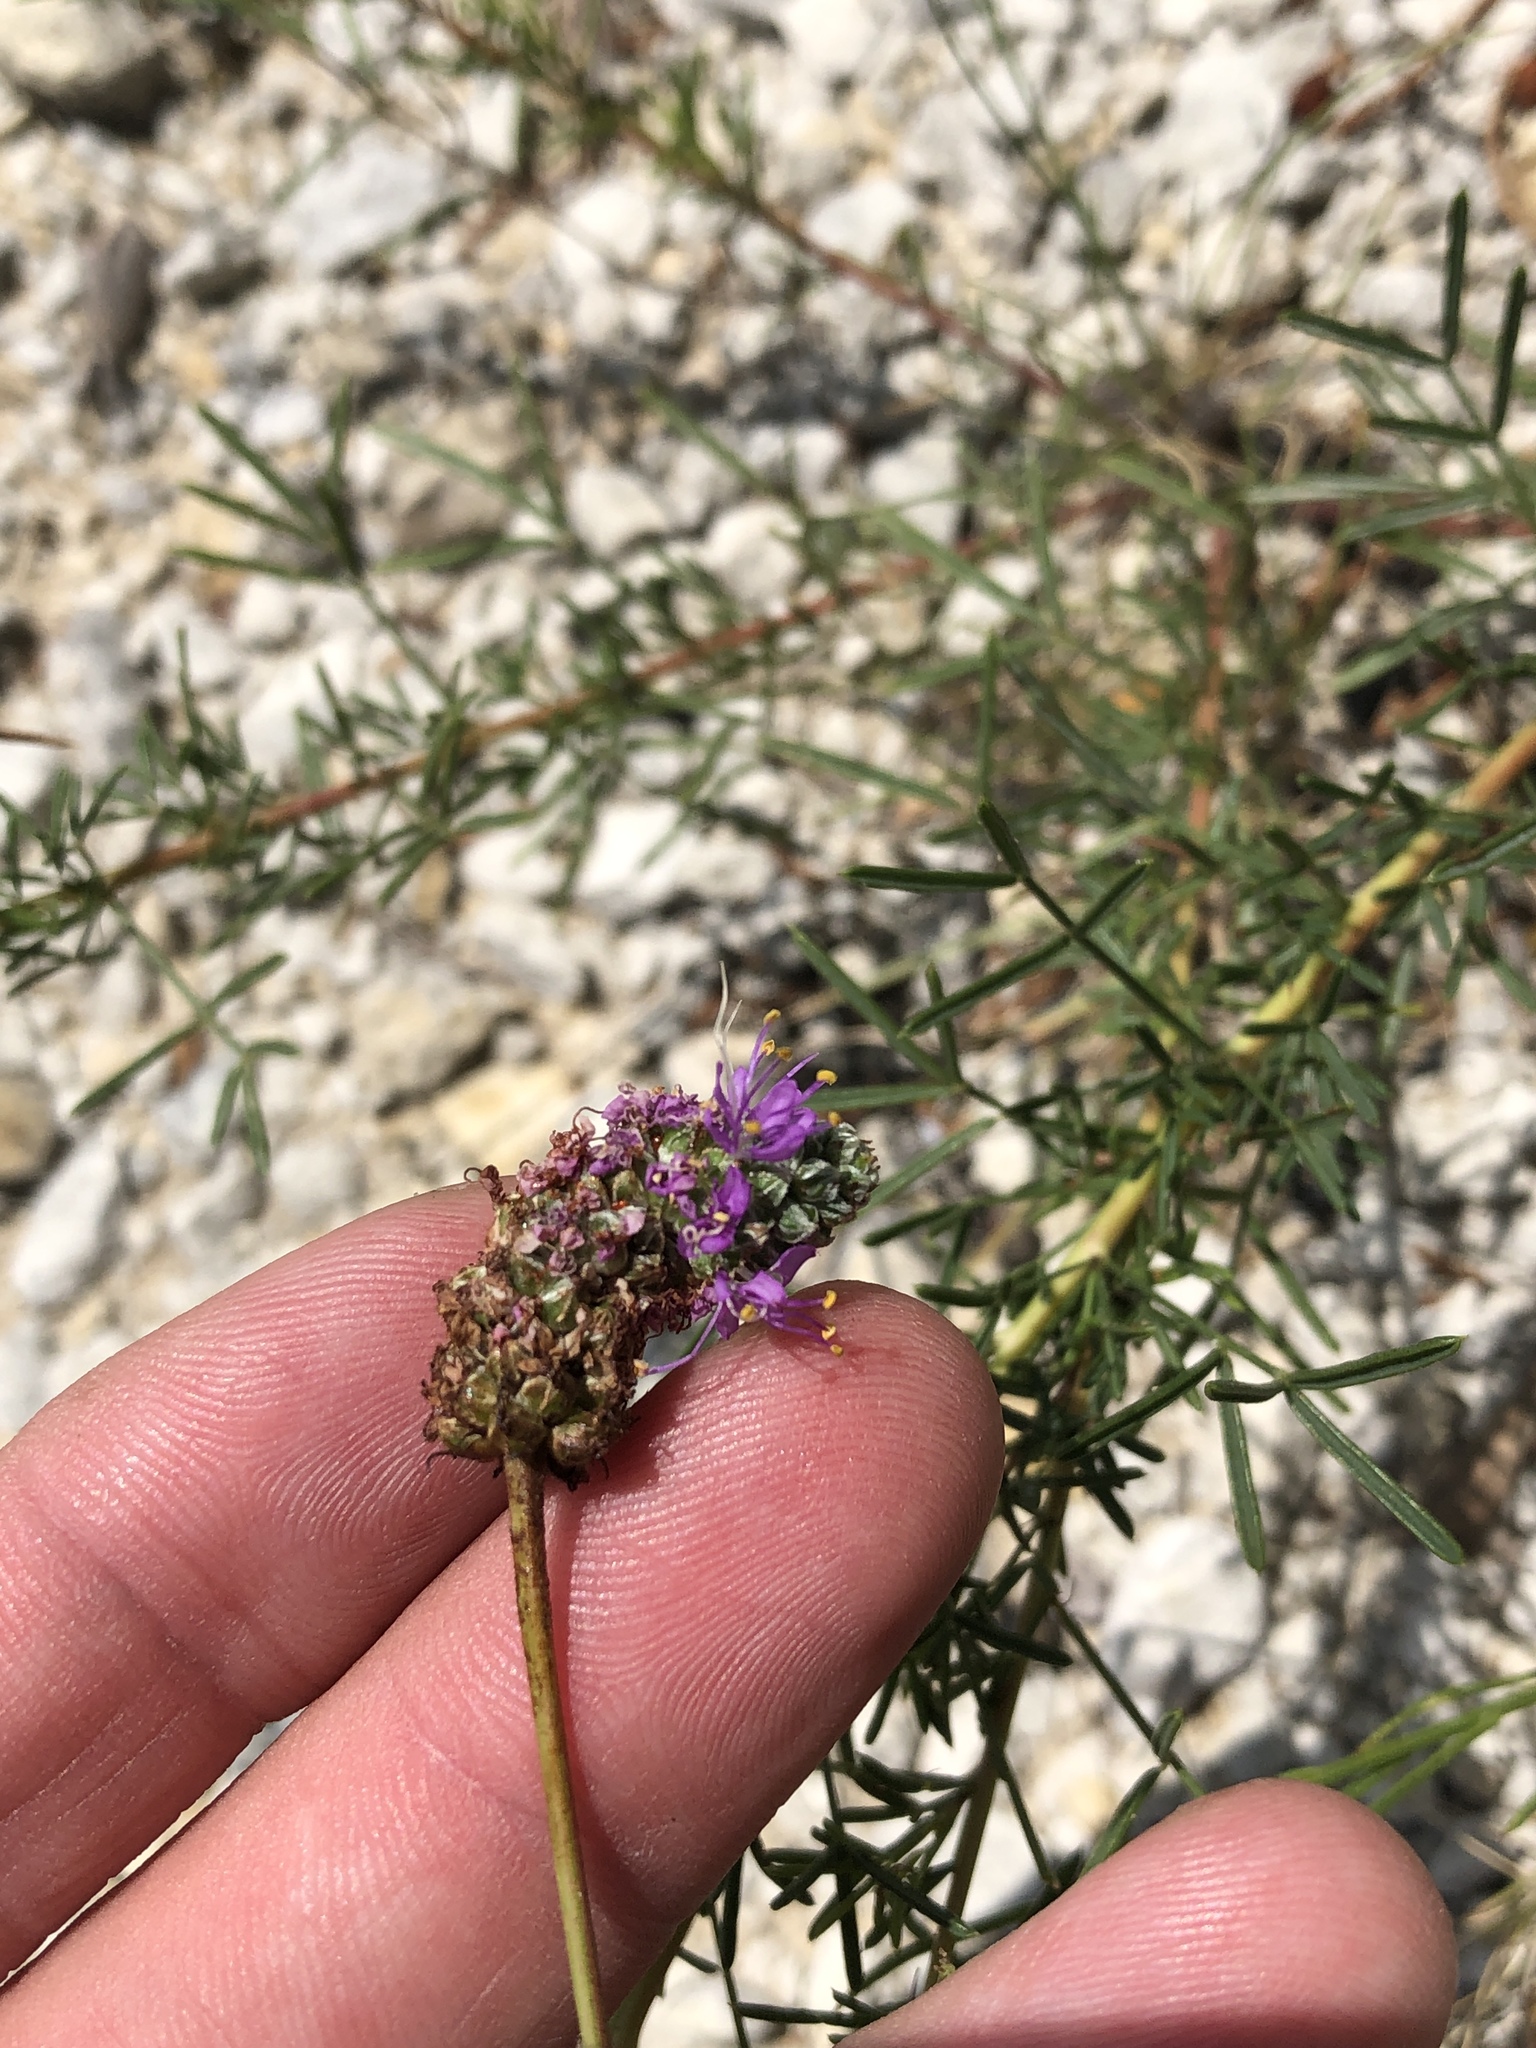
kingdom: Plantae
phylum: Tracheophyta
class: Magnoliopsida
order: Fabales
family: Fabaceae
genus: Dalea
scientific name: Dalea tenuis
